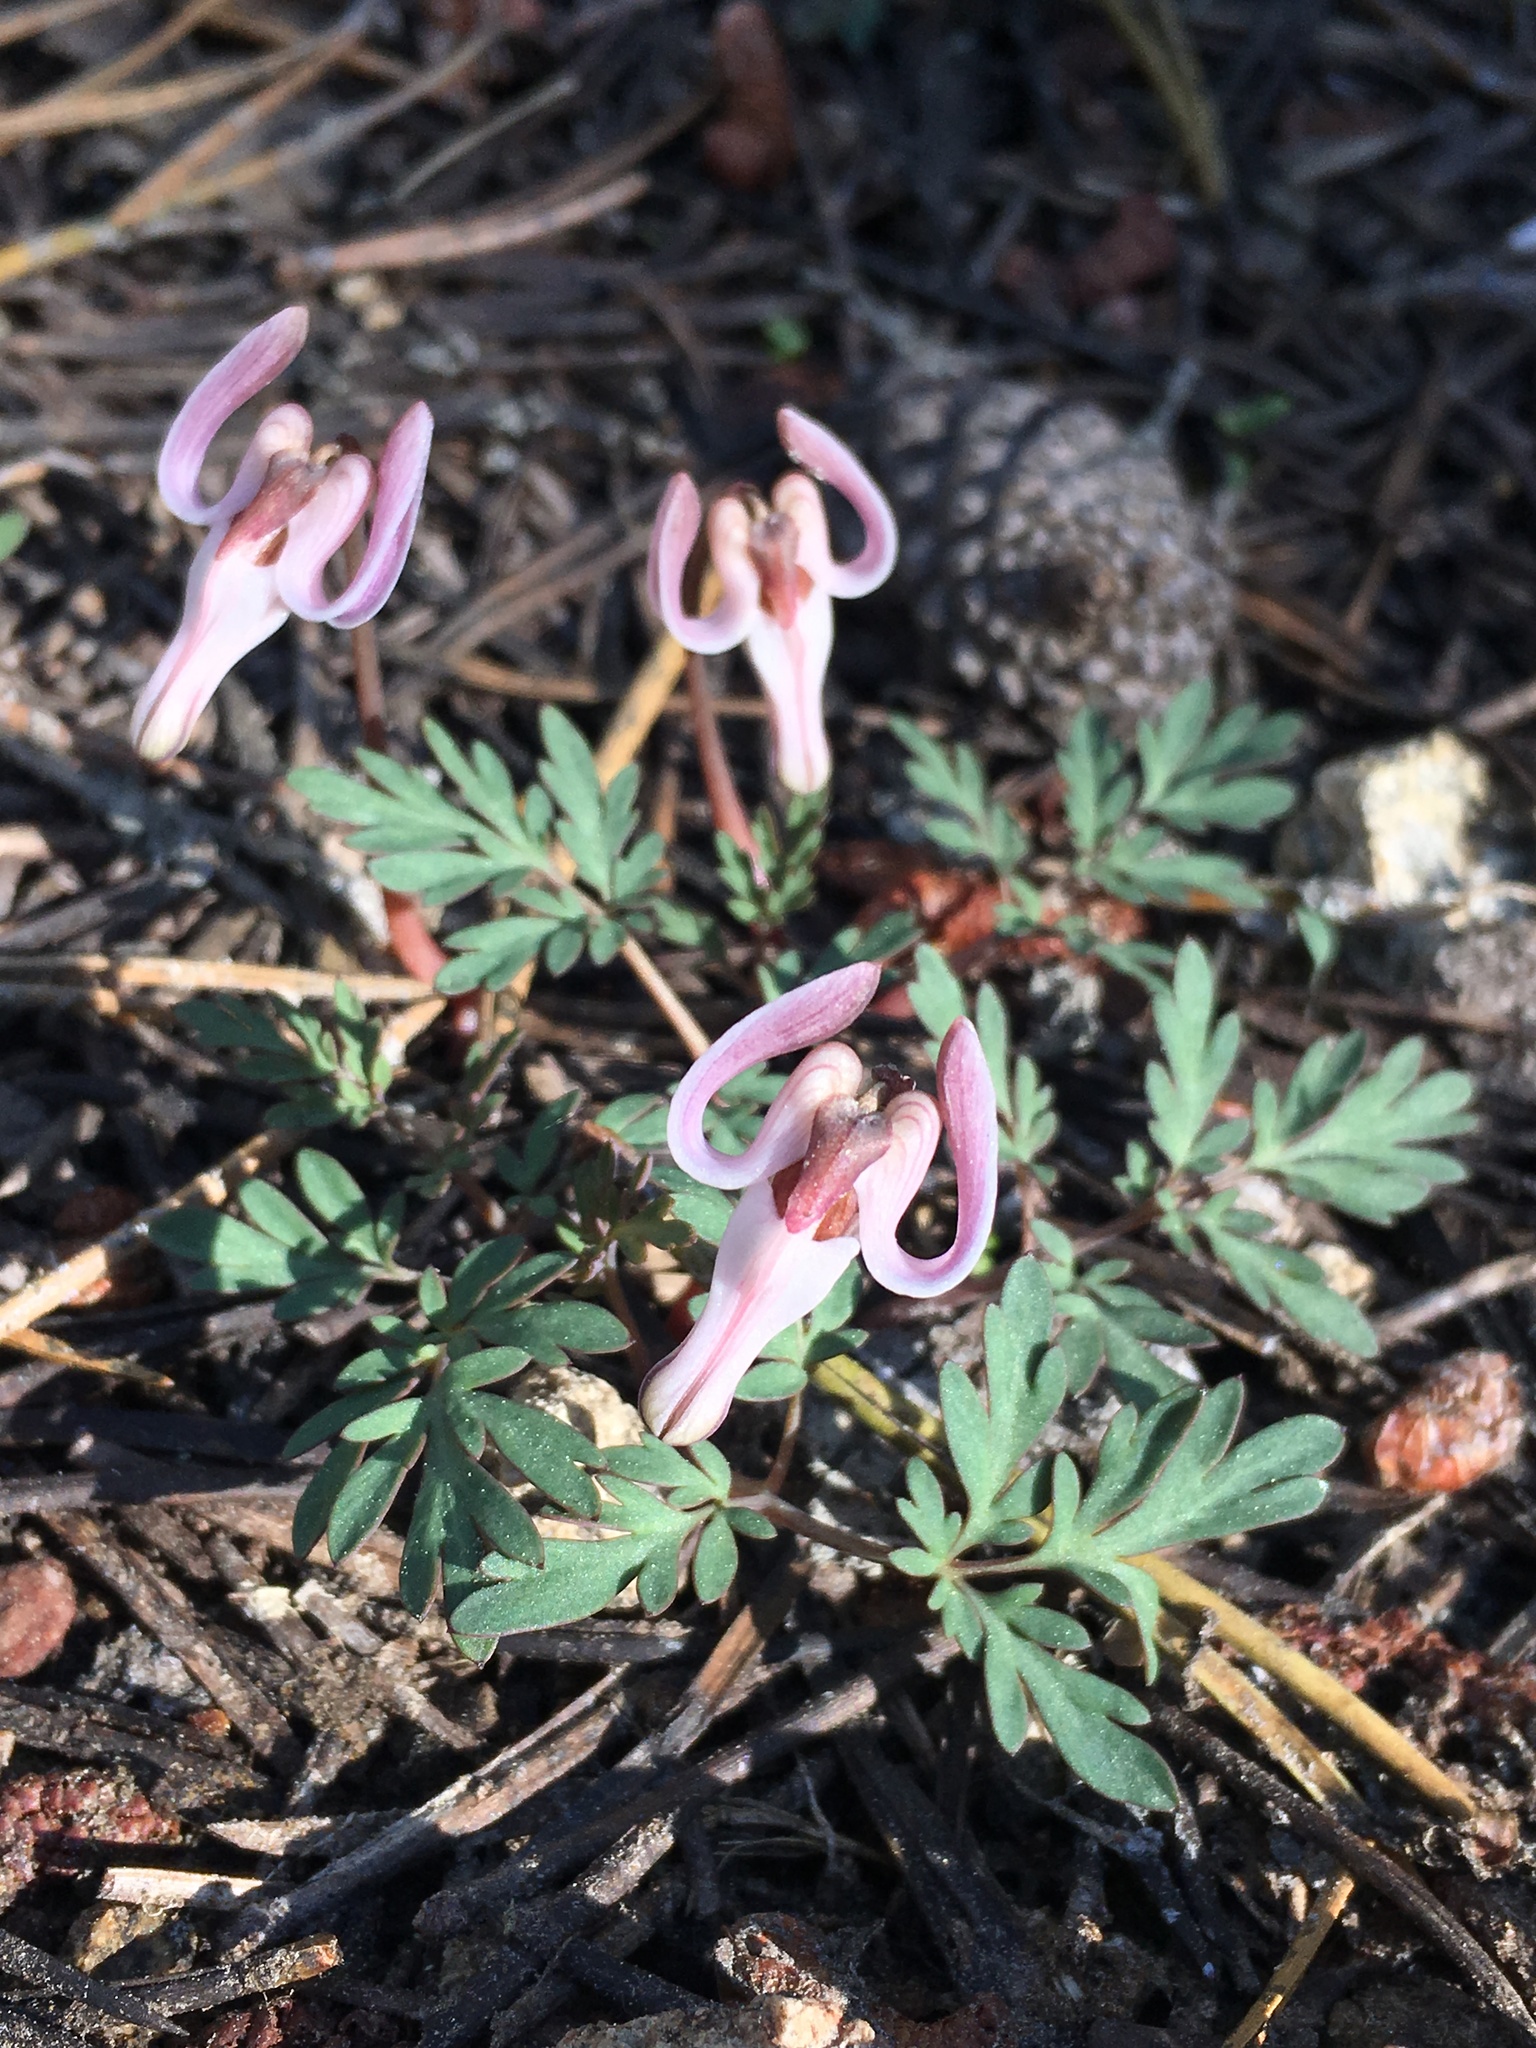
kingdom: Plantae
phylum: Tracheophyta
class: Magnoliopsida
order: Ranunculales
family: Papaveraceae
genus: Dicentra
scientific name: Dicentra uniflora
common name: Steer's-head
